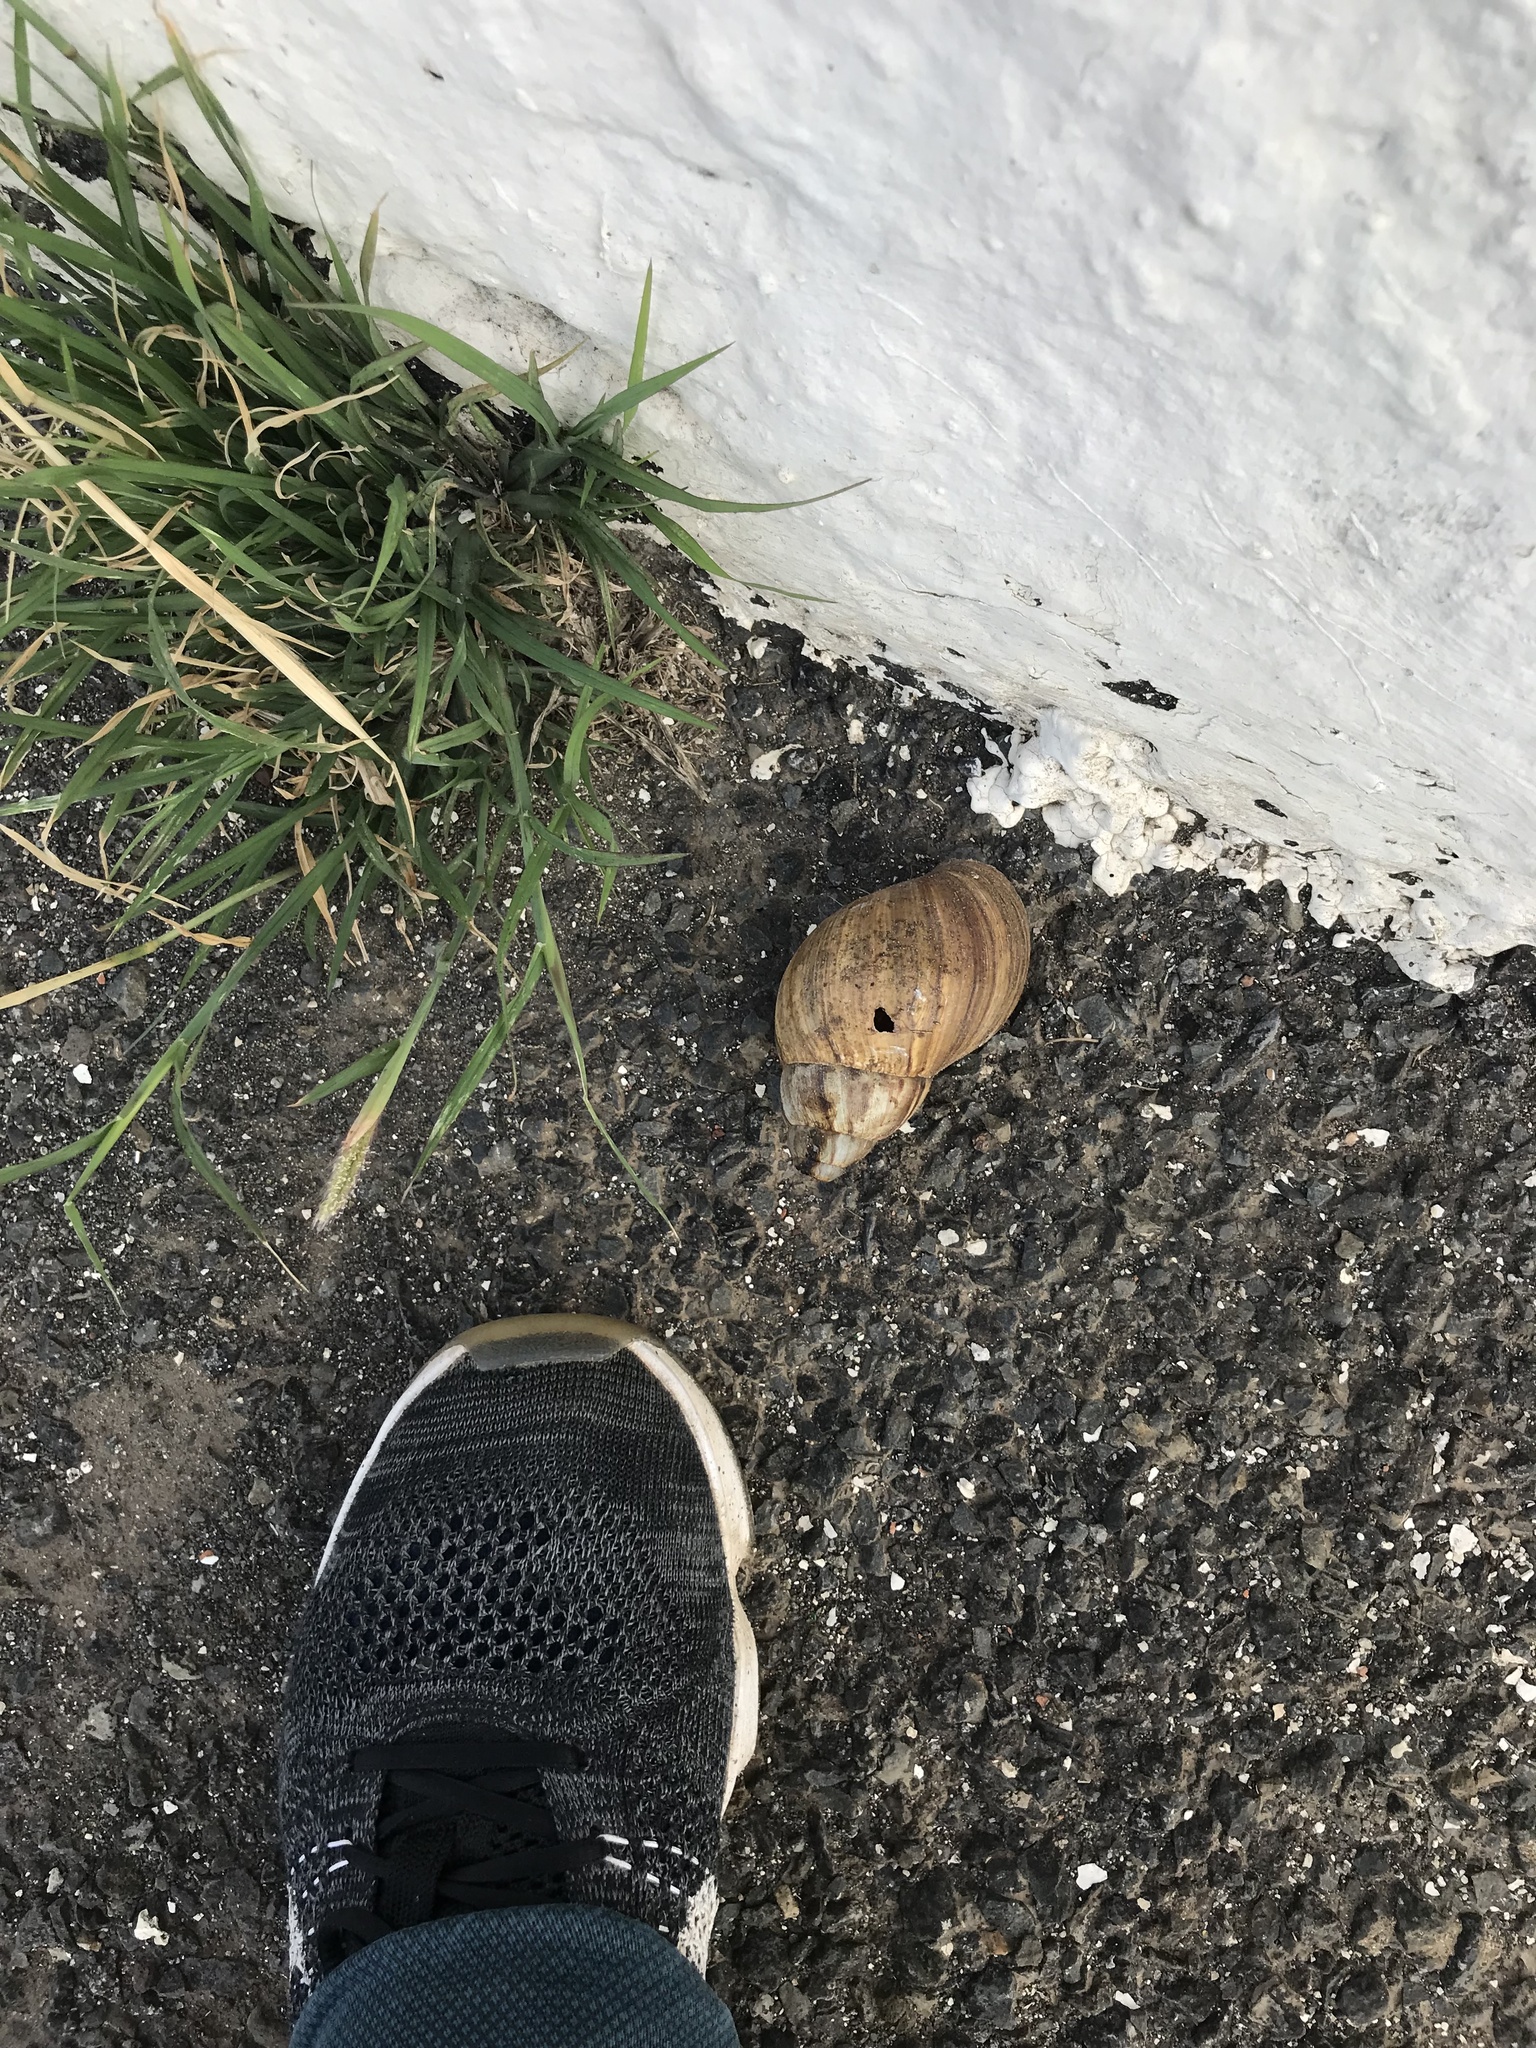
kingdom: Animalia
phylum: Mollusca
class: Gastropoda
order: Stylommatophora
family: Achatinidae
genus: Lissachatina
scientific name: Lissachatina fulica
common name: Giant african snail
